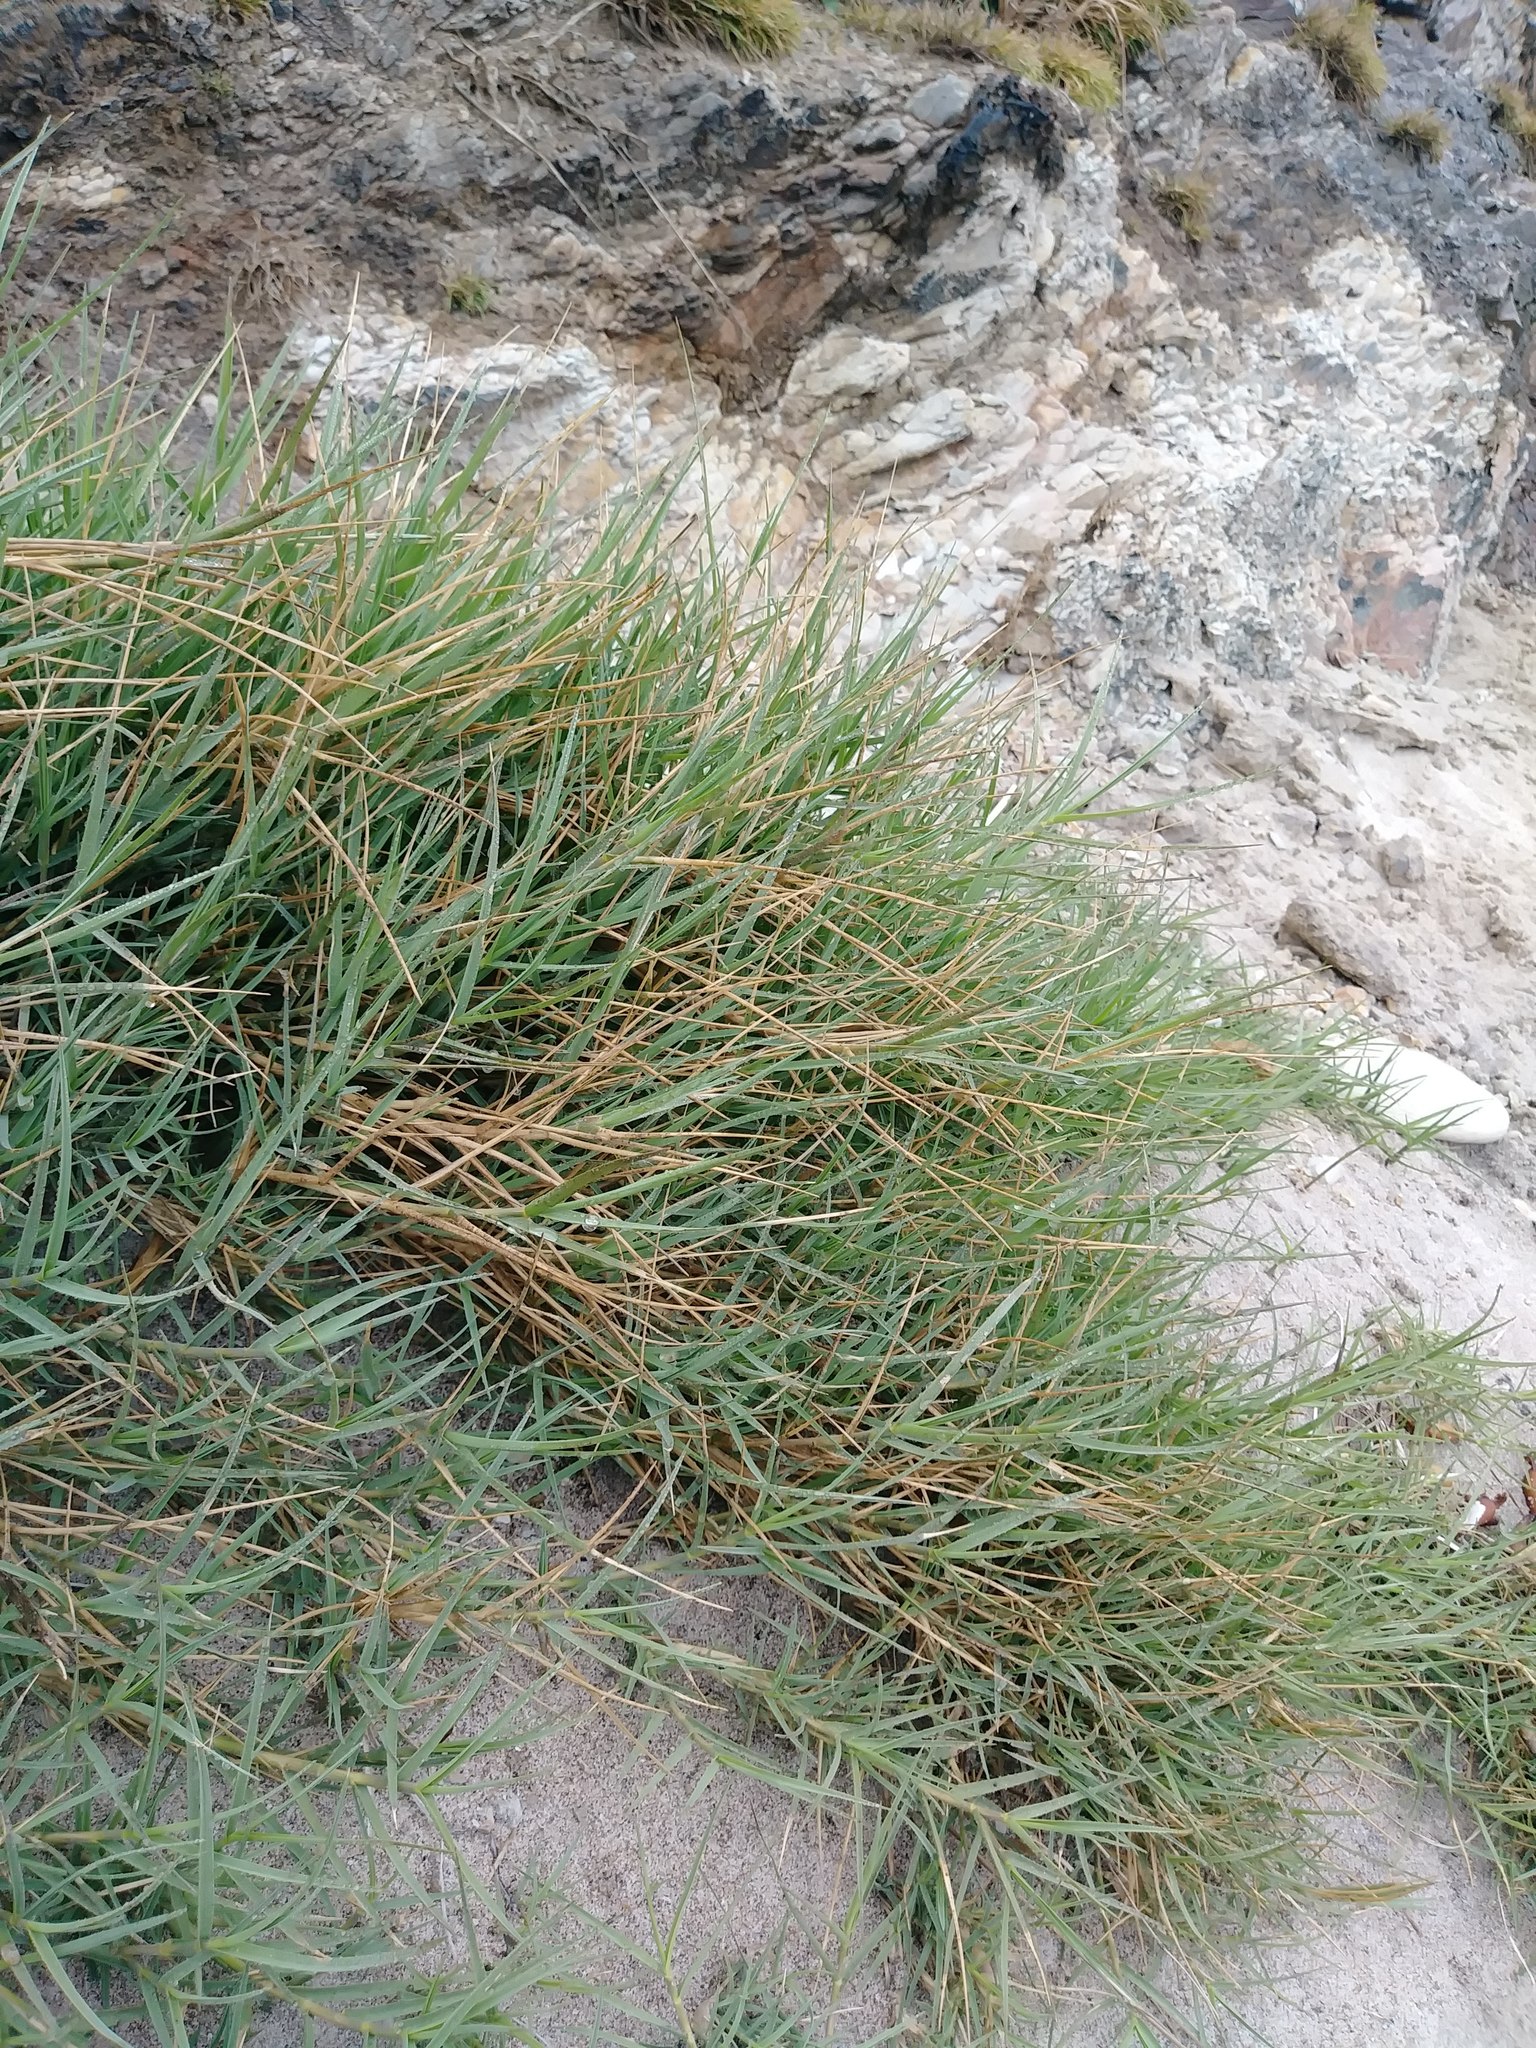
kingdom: Plantae
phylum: Tracheophyta
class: Liliopsida
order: Poales
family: Poaceae
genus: Distichlis
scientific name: Distichlis spicata
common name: Saltgrass
